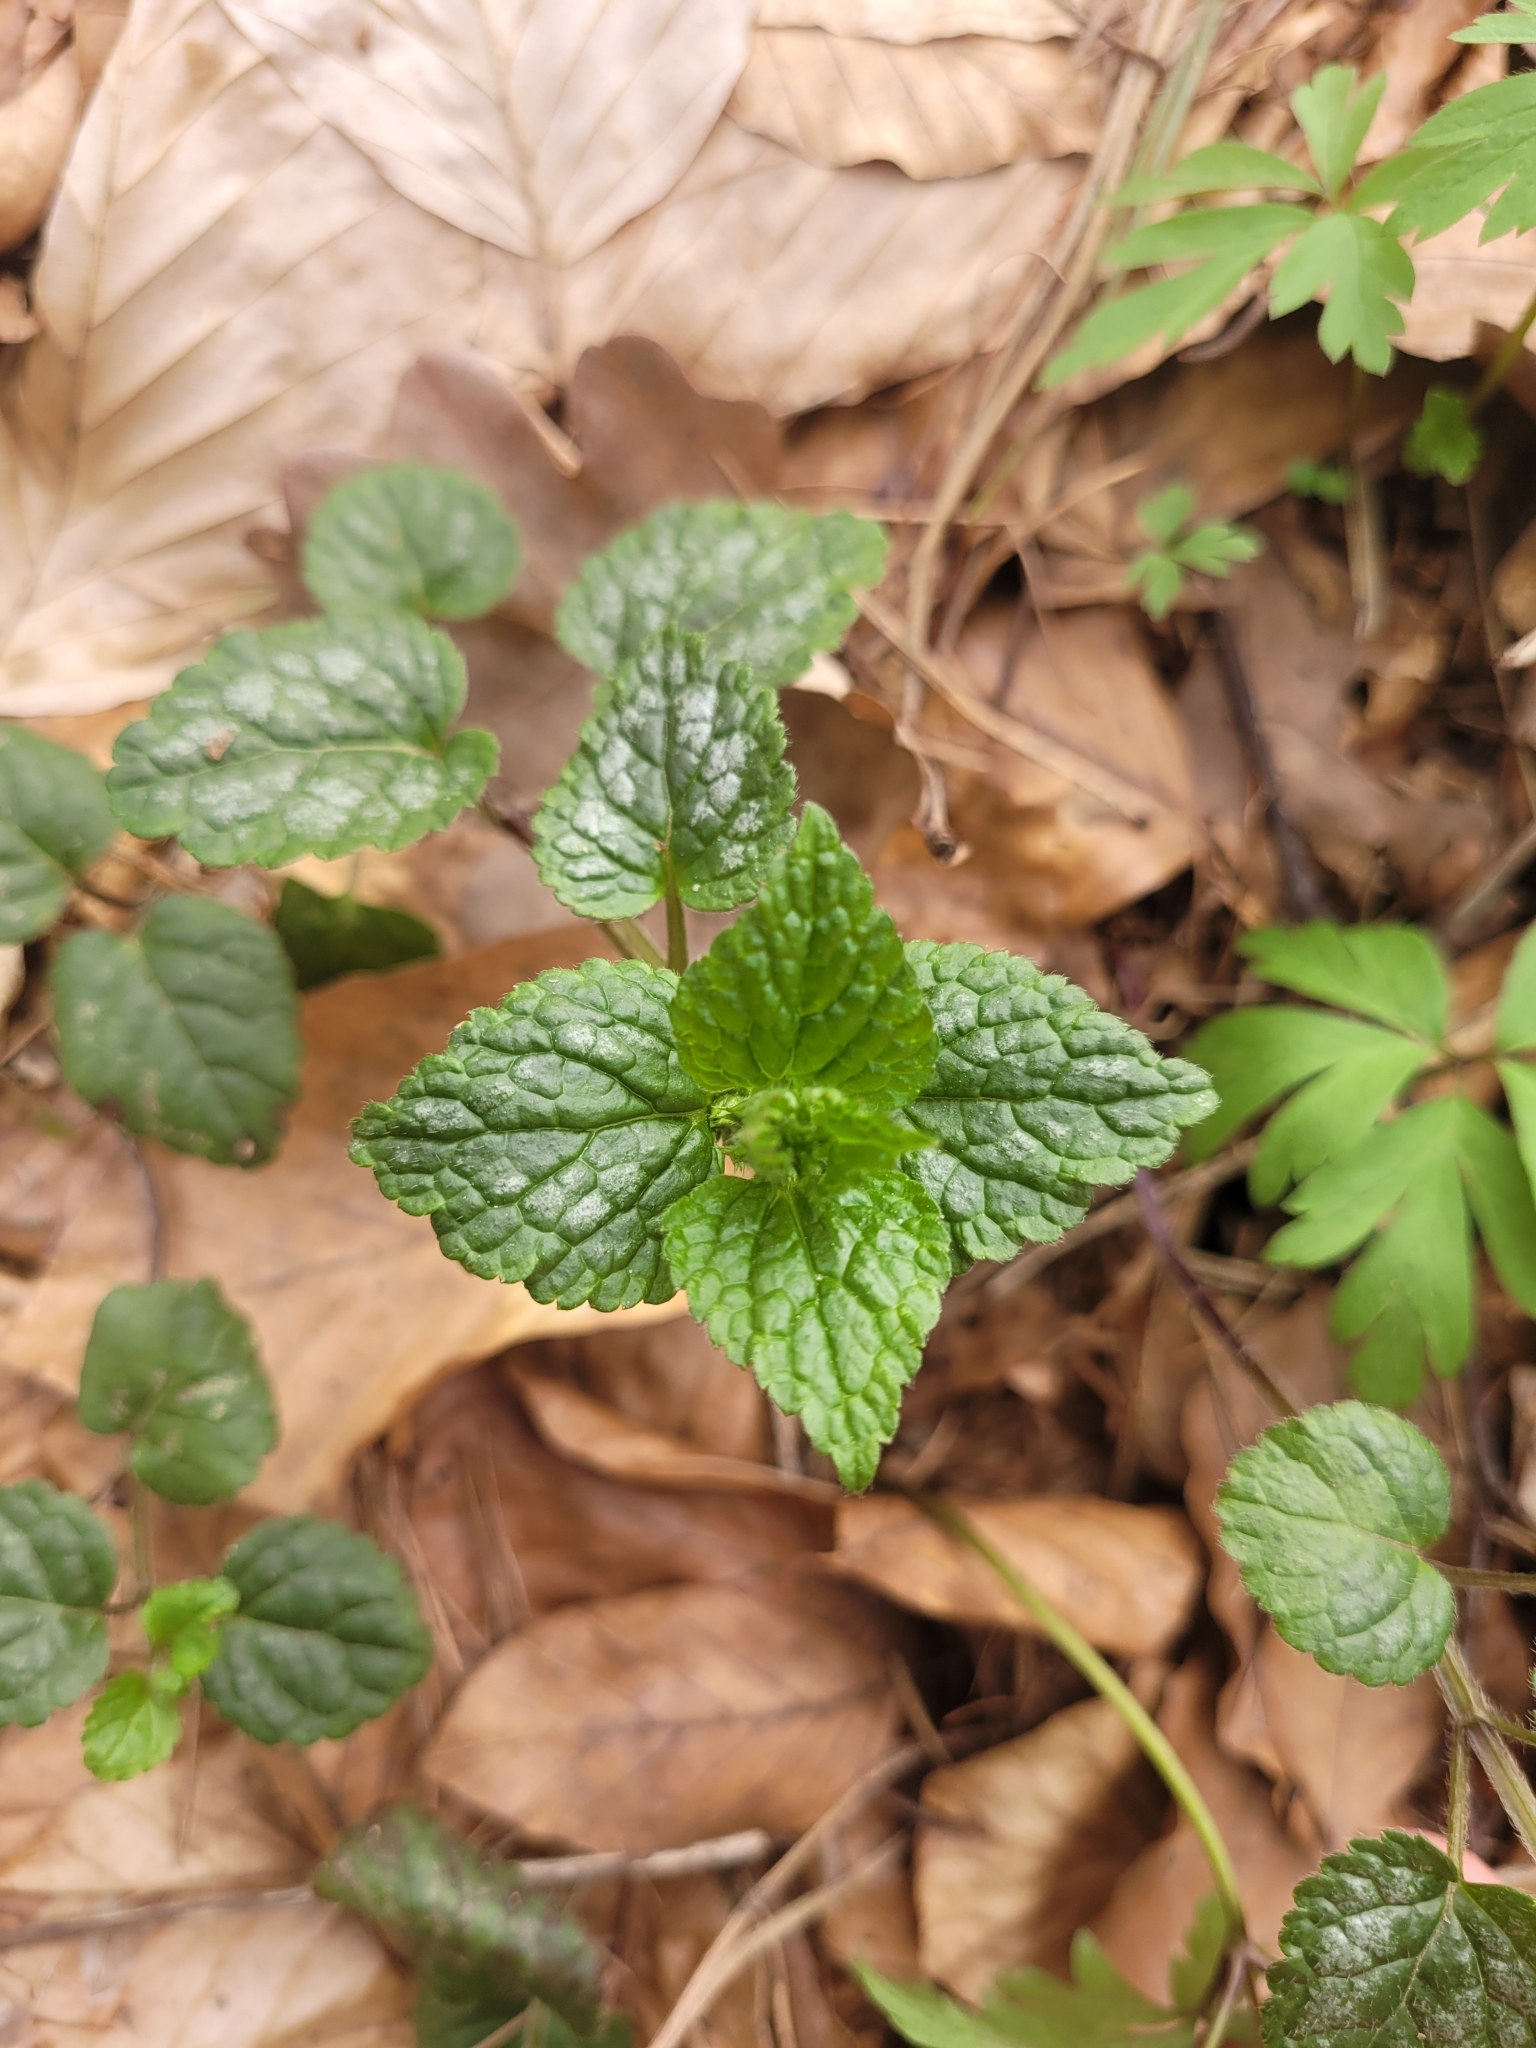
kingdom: Plantae
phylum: Tracheophyta
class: Magnoliopsida
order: Lamiales
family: Lamiaceae
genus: Lamium
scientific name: Lamium galeobdolon
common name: Yellow archangel
